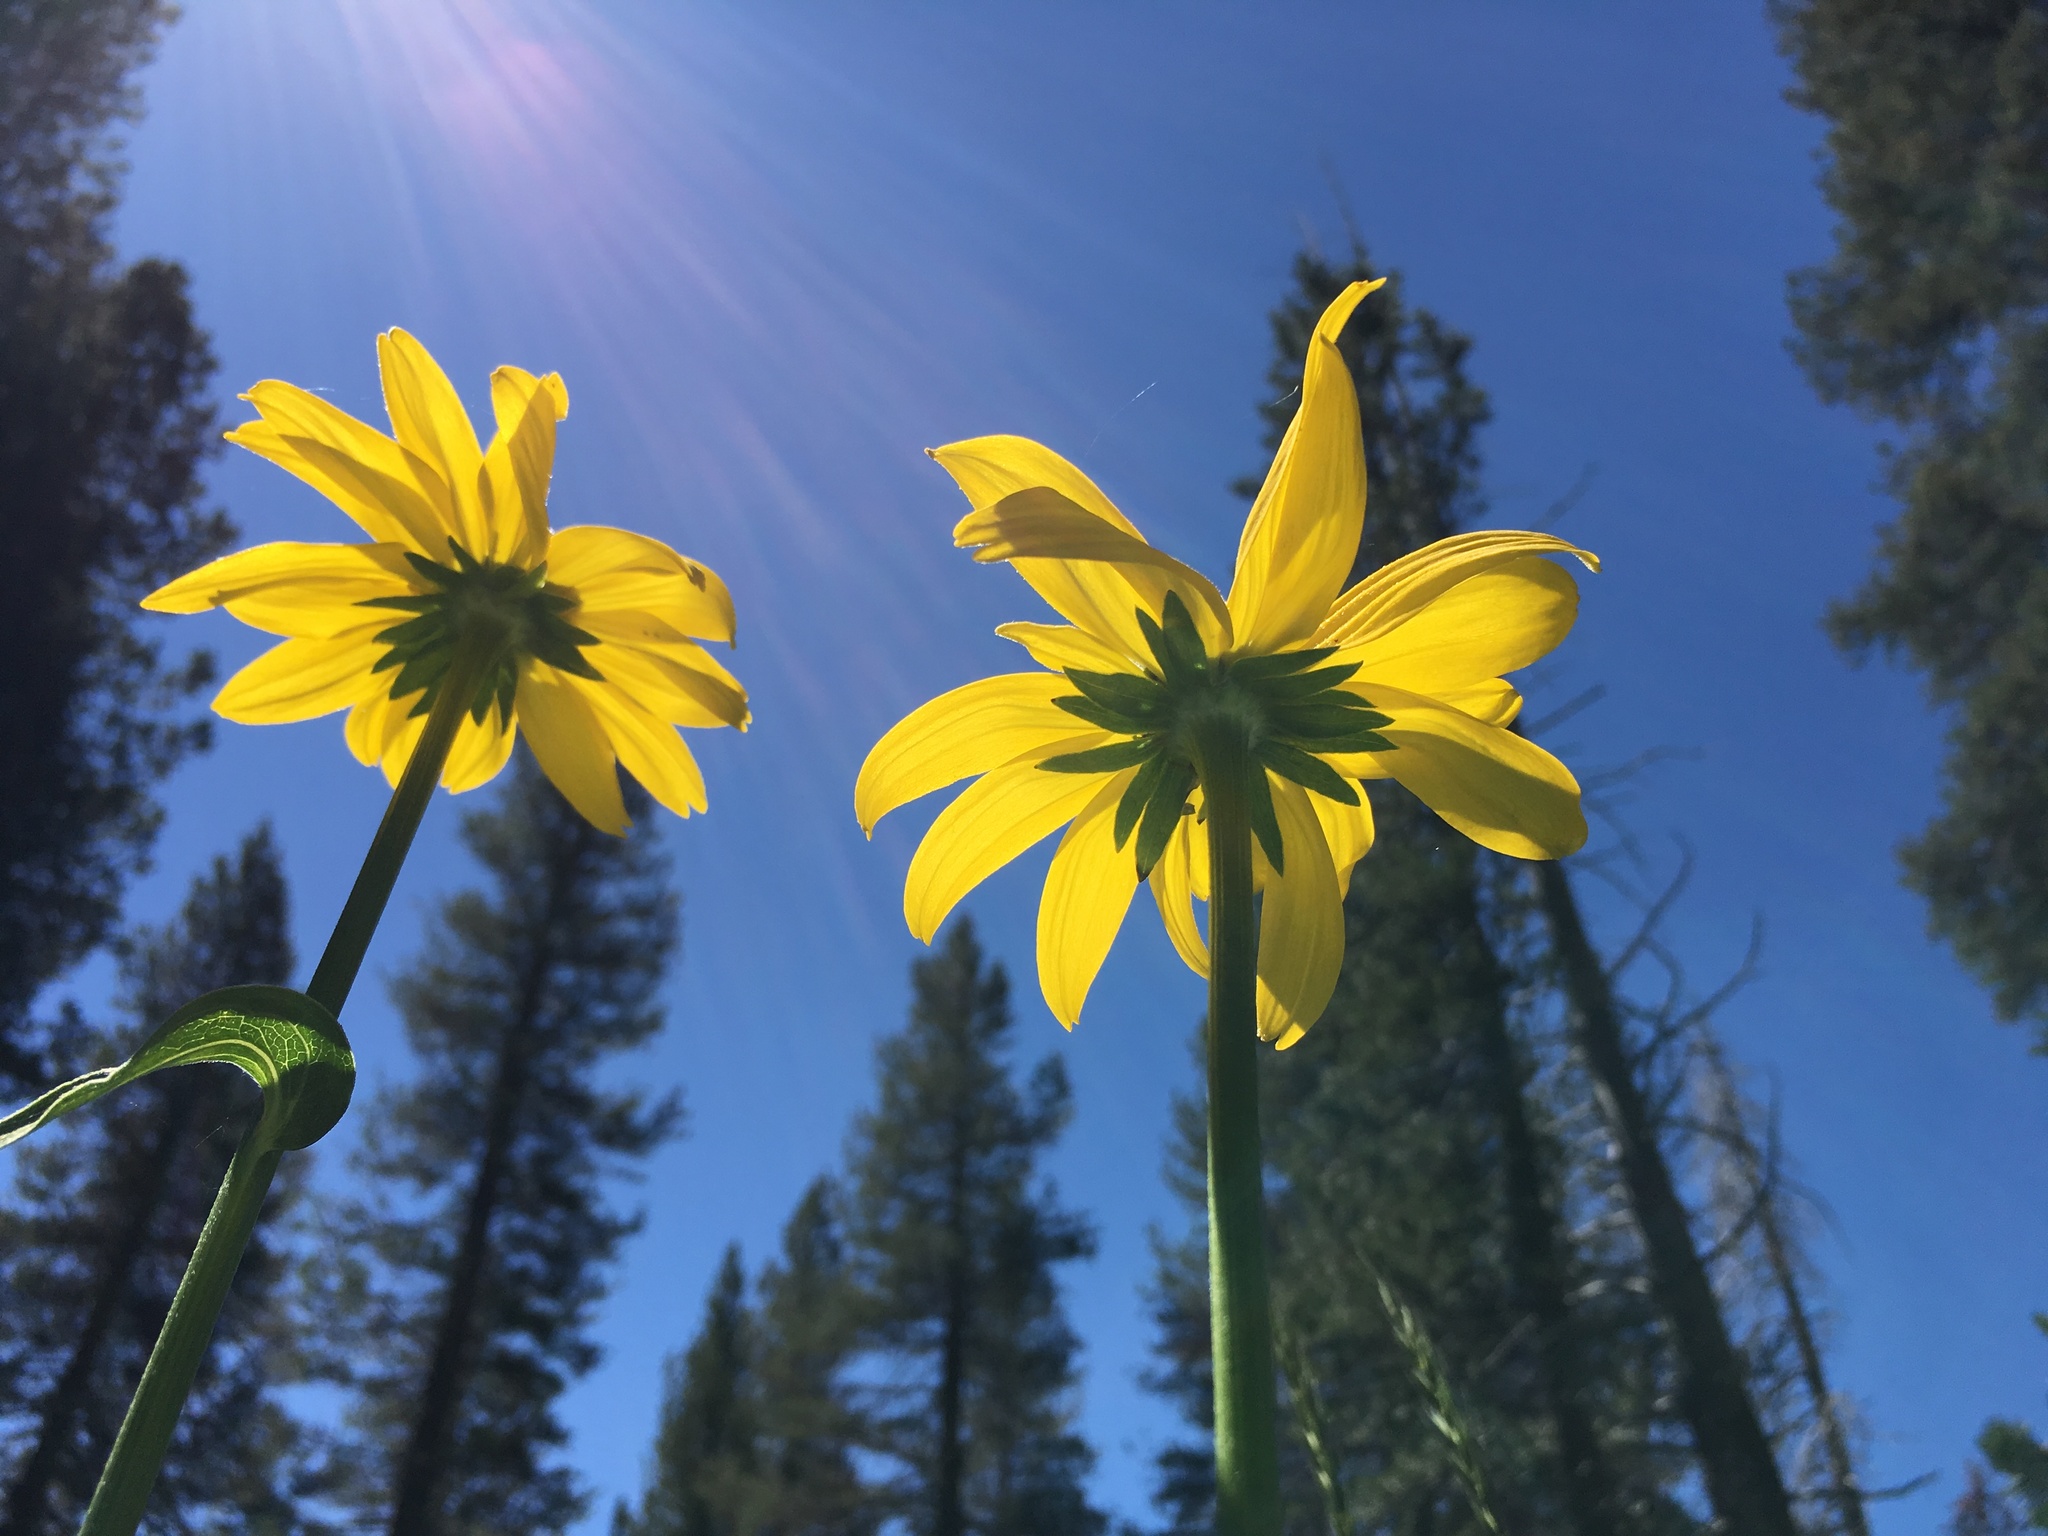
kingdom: Plantae
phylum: Tracheophyta
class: Magnoliopsida
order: Asterales
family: Asteraceae
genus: Rudbeckia
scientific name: Rudbeckia californica
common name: California coneflower
